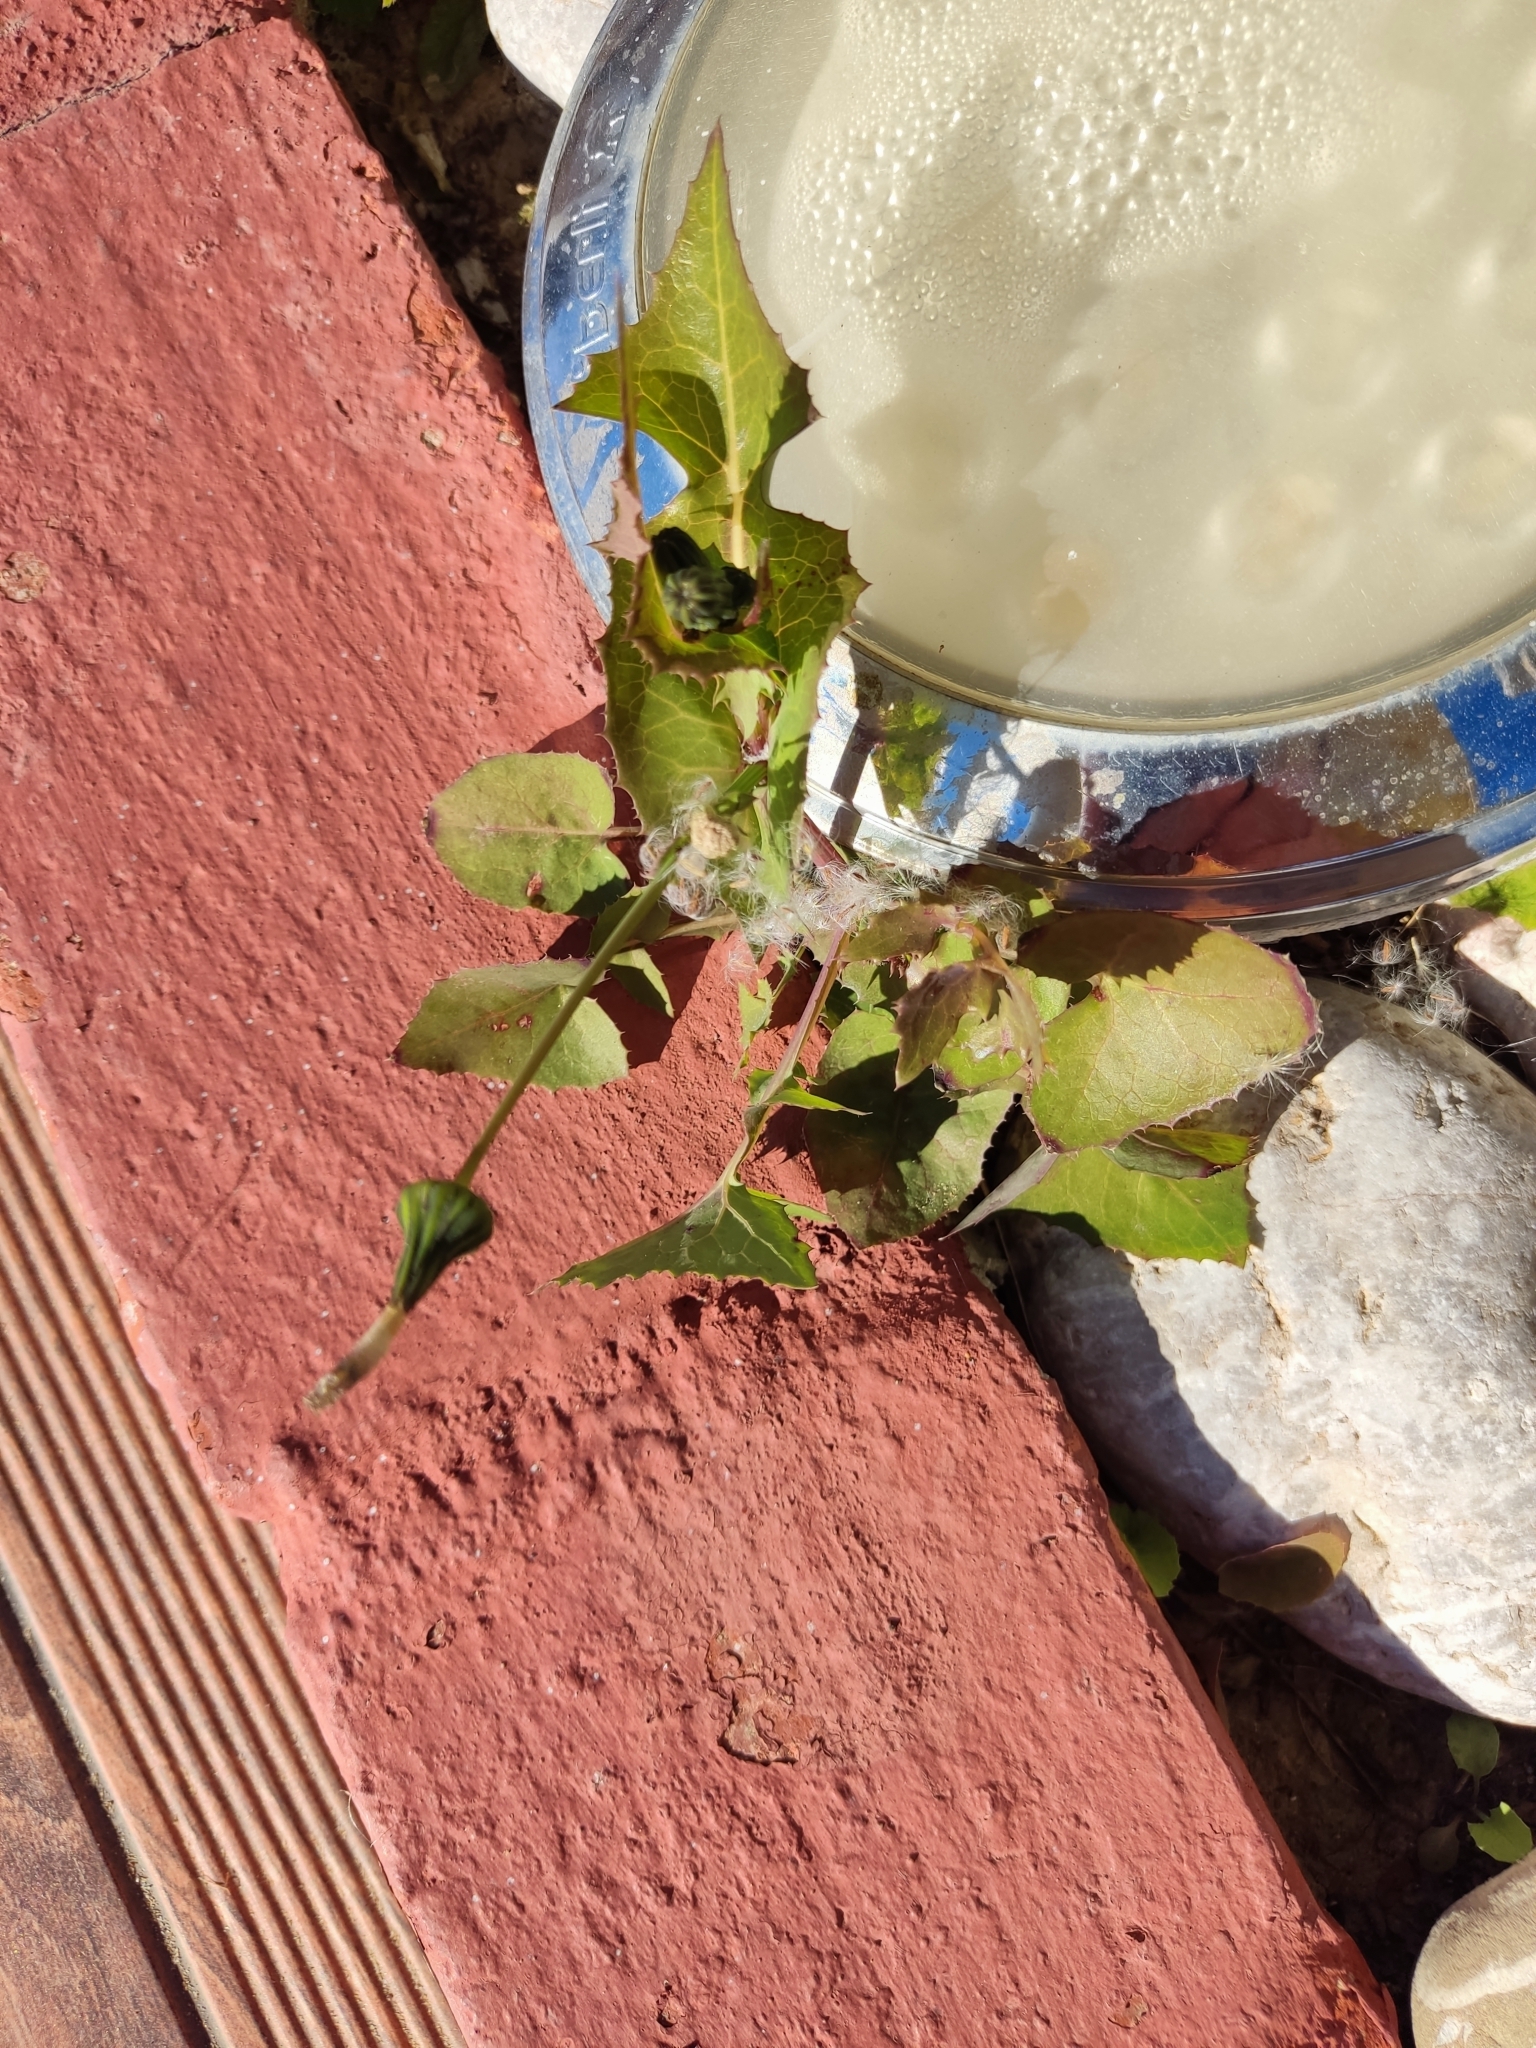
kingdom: Plantae
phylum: Tracheophyta
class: Magnoliopsida
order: Asterales
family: Asteraceae
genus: Sonchus
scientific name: Sonchus oleraceus
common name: Common sowthistle
